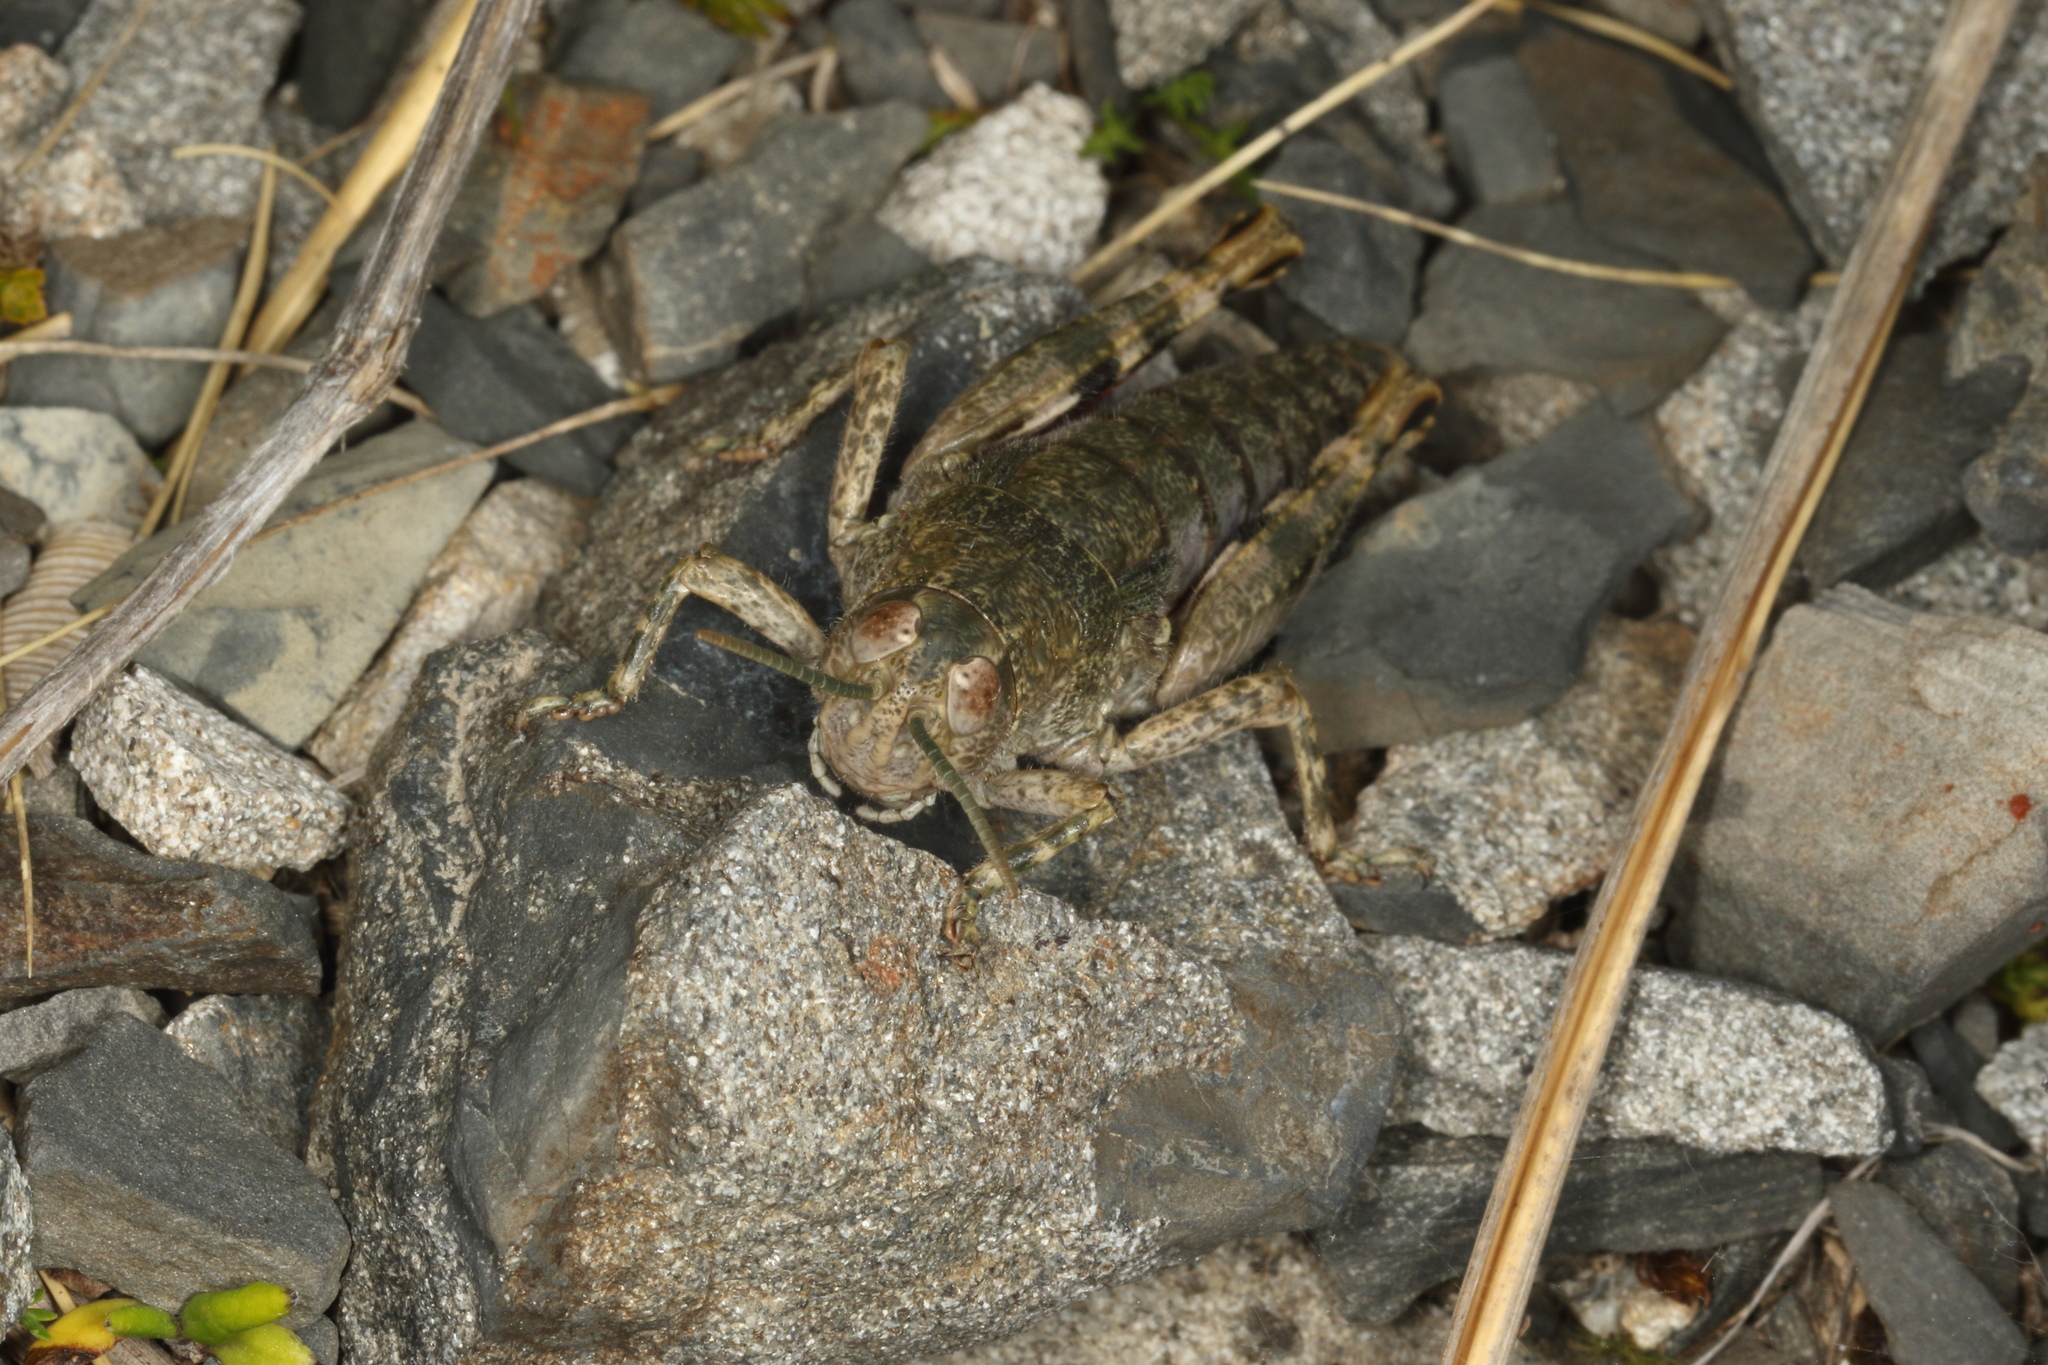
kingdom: Animalia
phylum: Arthropoda
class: Insecta
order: Orthoptera
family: Acrididae
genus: Sigaus
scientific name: Sigaus
